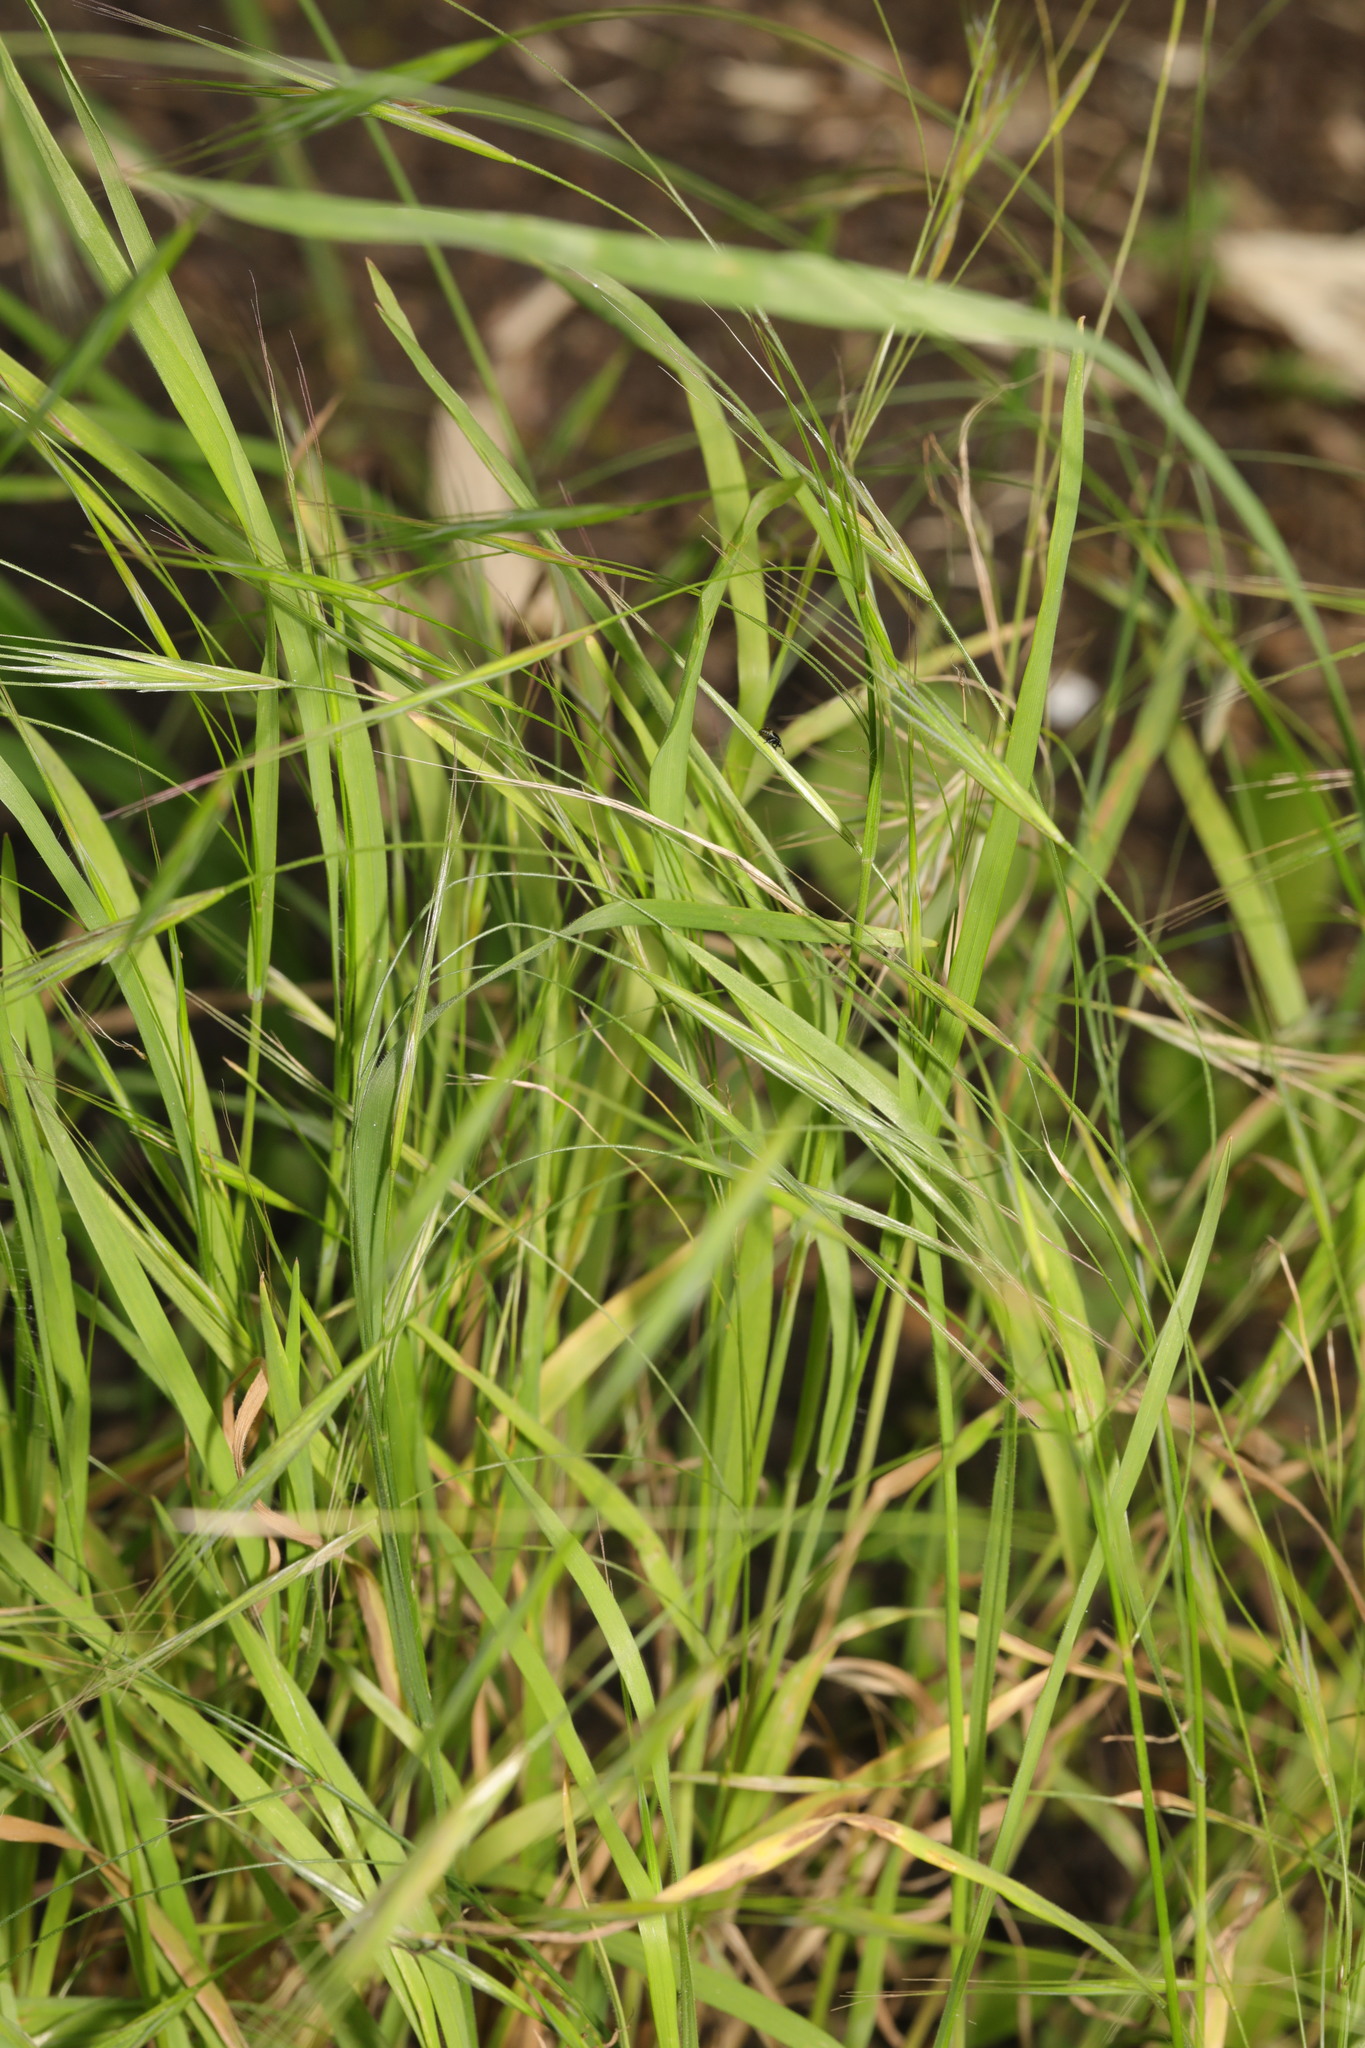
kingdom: Plantae
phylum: Tracheophyta
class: Liliopsida
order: Poales
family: Poaceae
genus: Bromus
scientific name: Bromus sterilis
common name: Poverty brome
